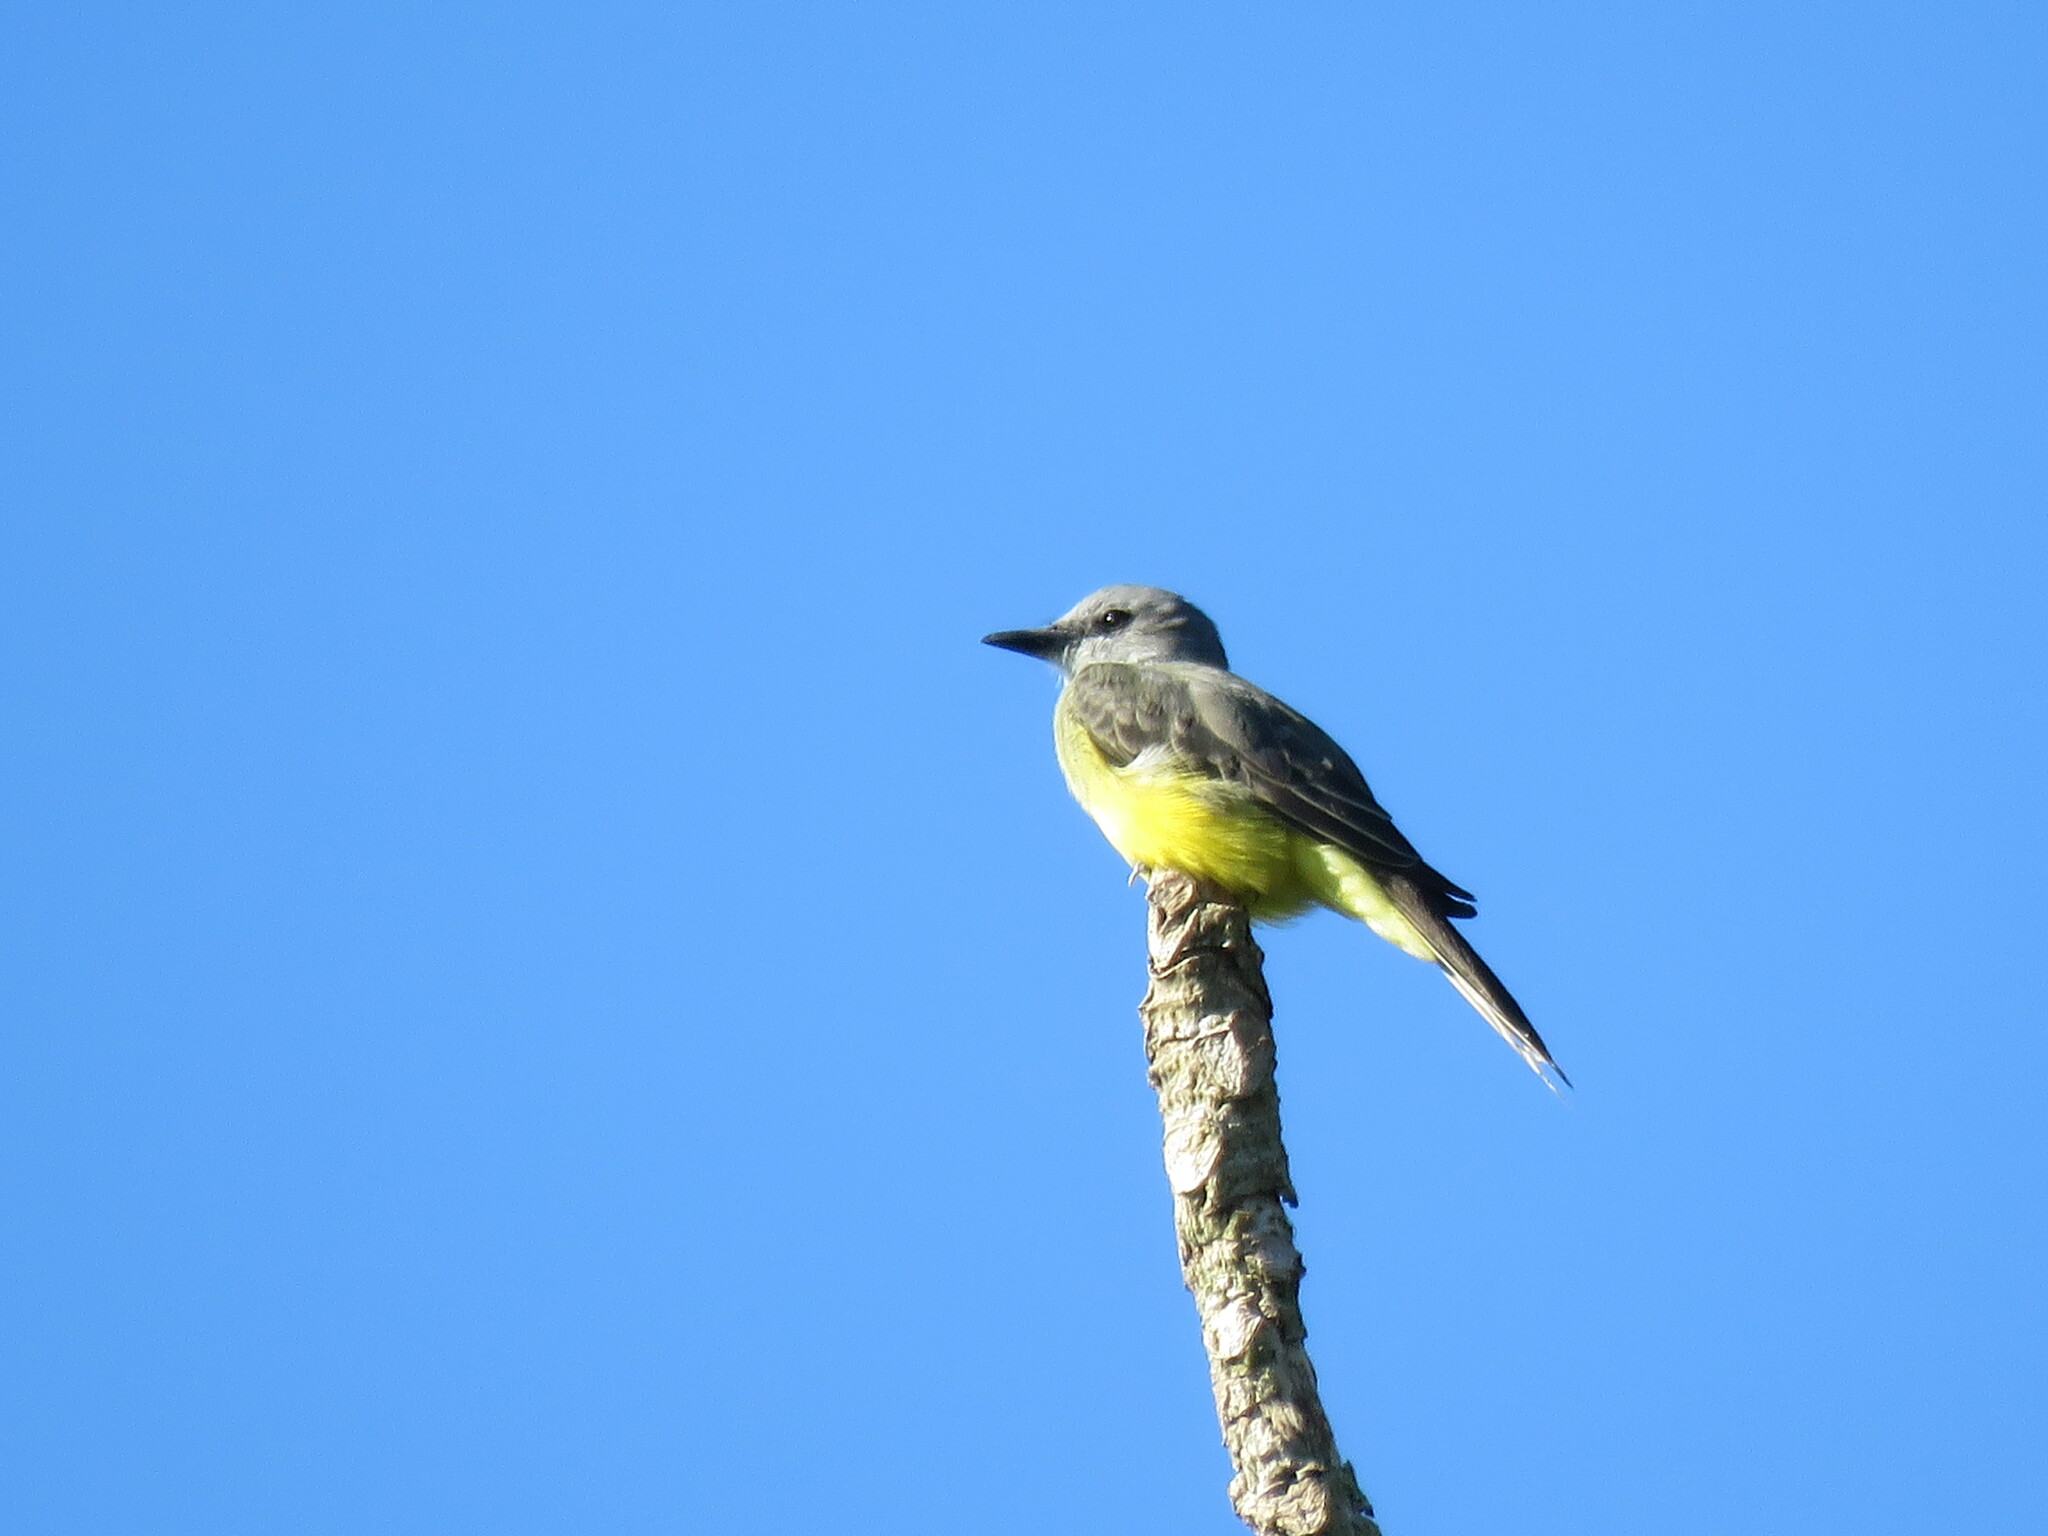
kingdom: Animalia
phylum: Chordata
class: Aves
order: Passeriformes
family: Tyrannidae
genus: Tyrannus
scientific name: Tyrannus melancholicus
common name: Tropical kingbird
